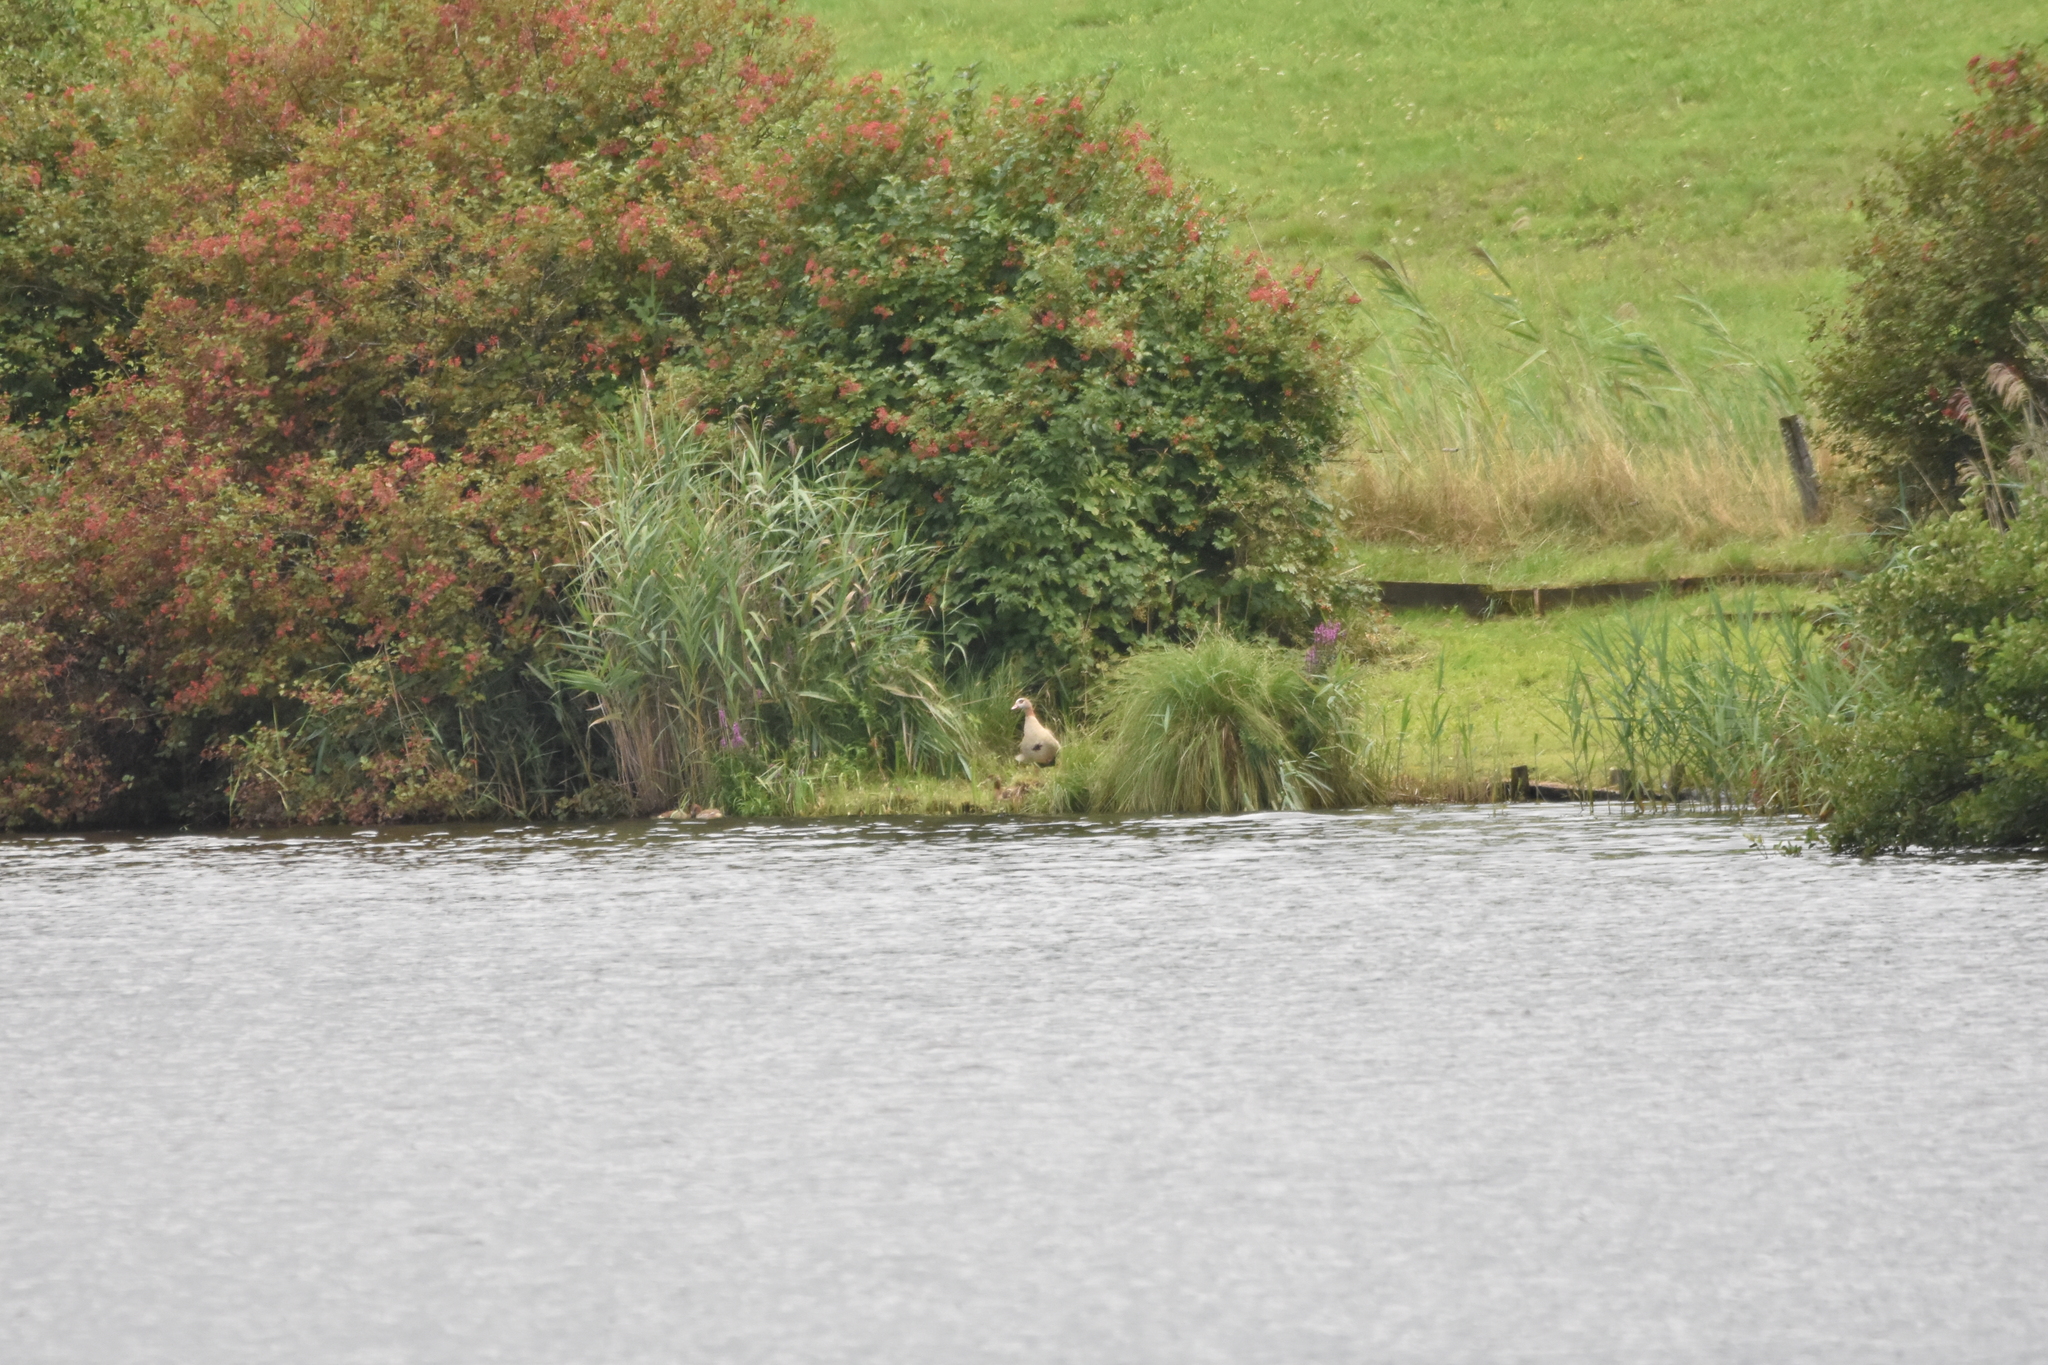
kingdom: Animalia
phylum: Chordata
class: Aves
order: Anseriformes
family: Anatidae
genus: Alopochen
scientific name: Alopochen aegyptiaca
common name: Egyptian goose
